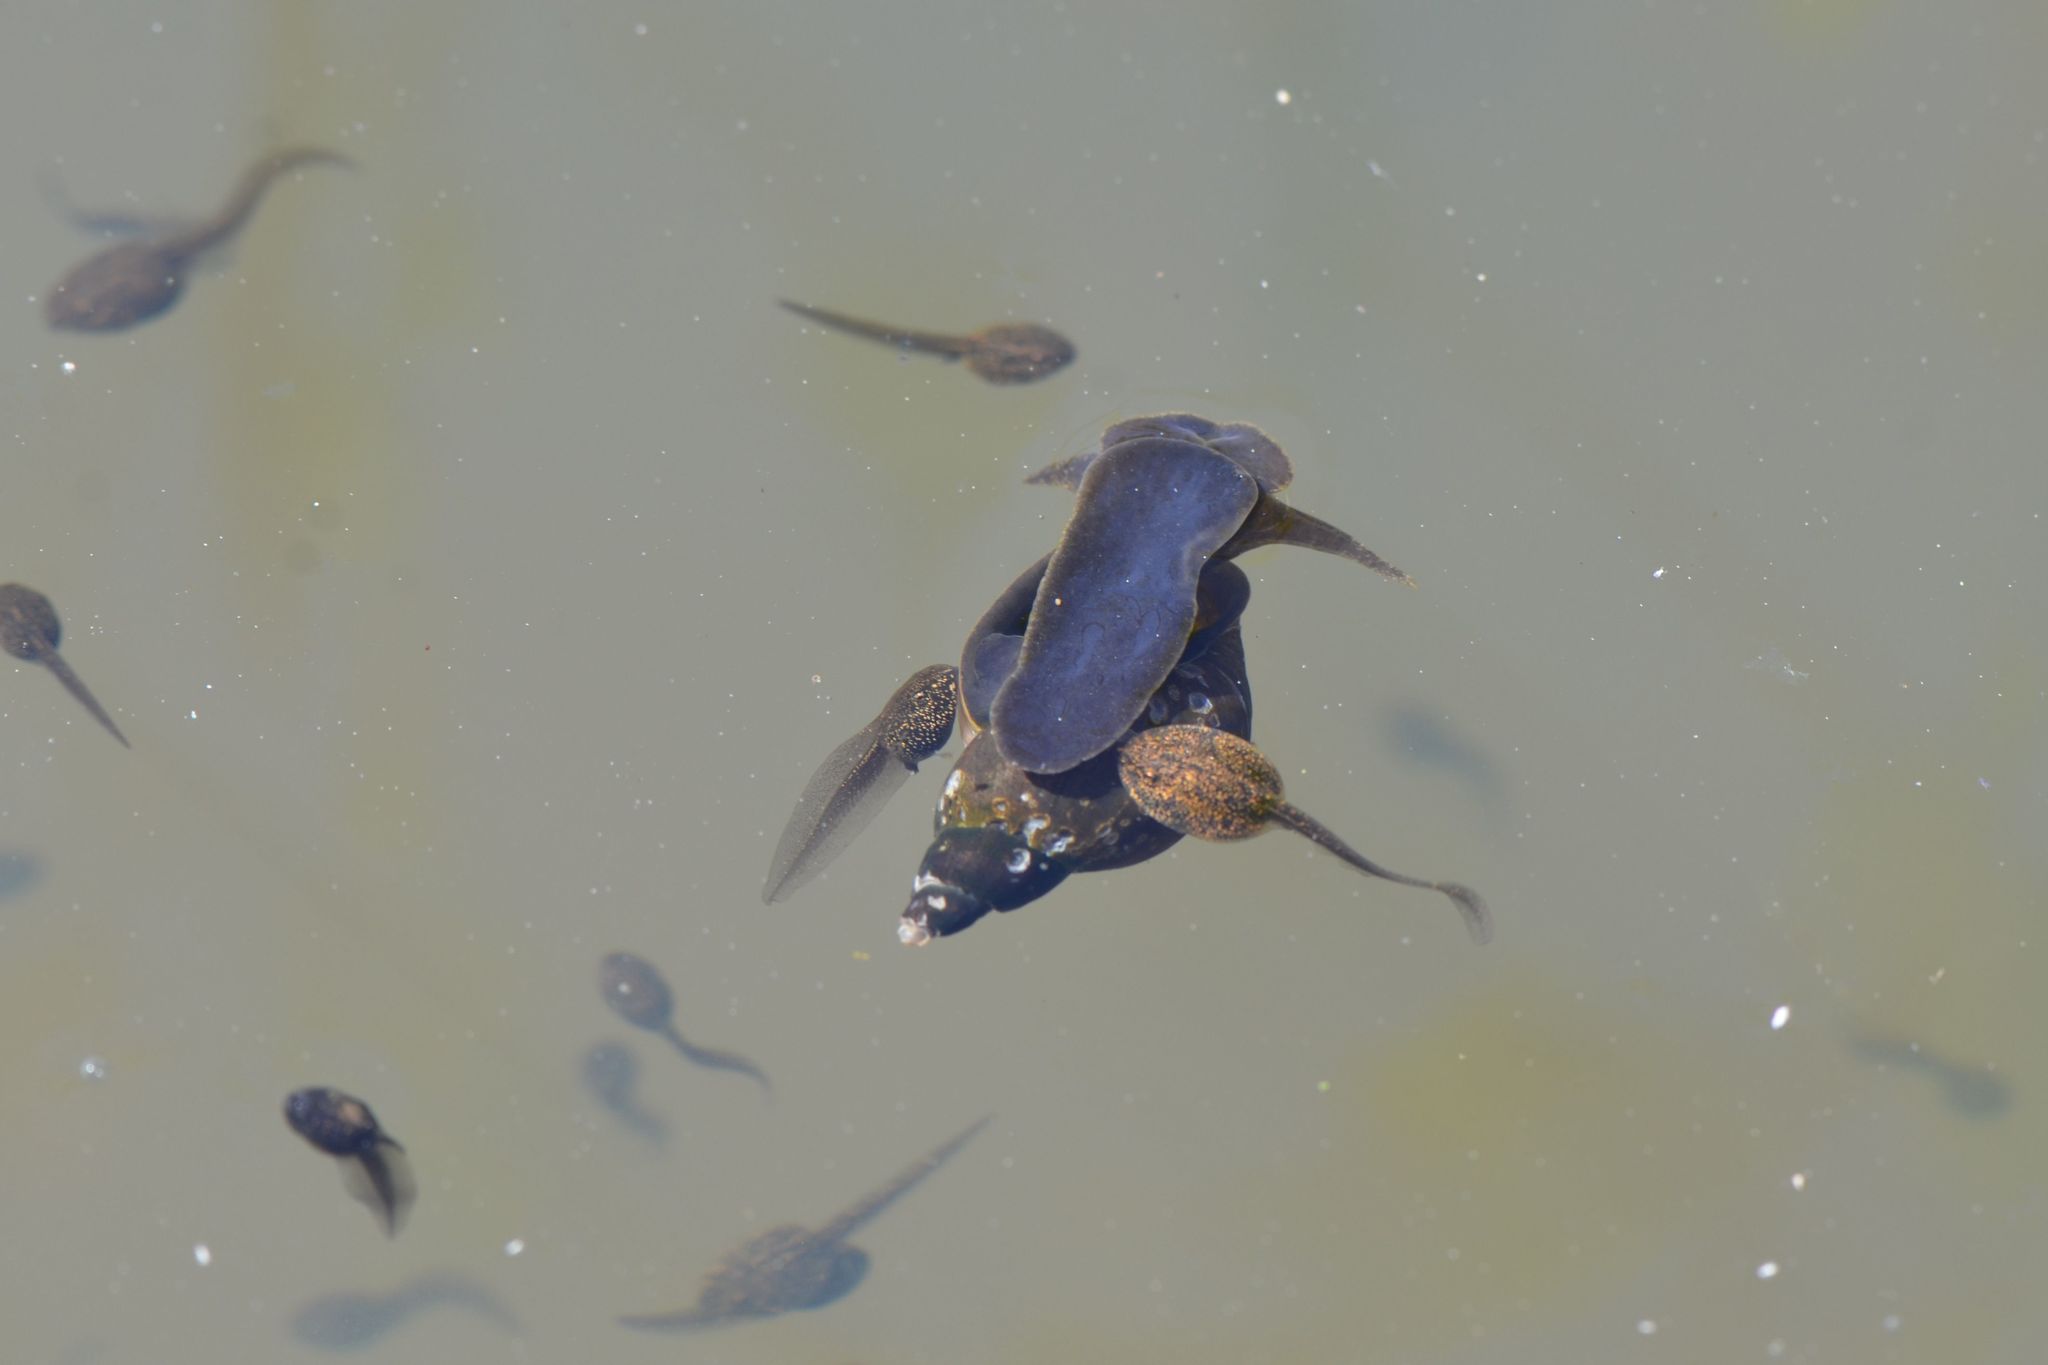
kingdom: Animalia
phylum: Mollusca
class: Gastropoda
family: Lymnaeidae
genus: Lymnaea
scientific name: Lymnaea stagnalis
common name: Great pond snail
